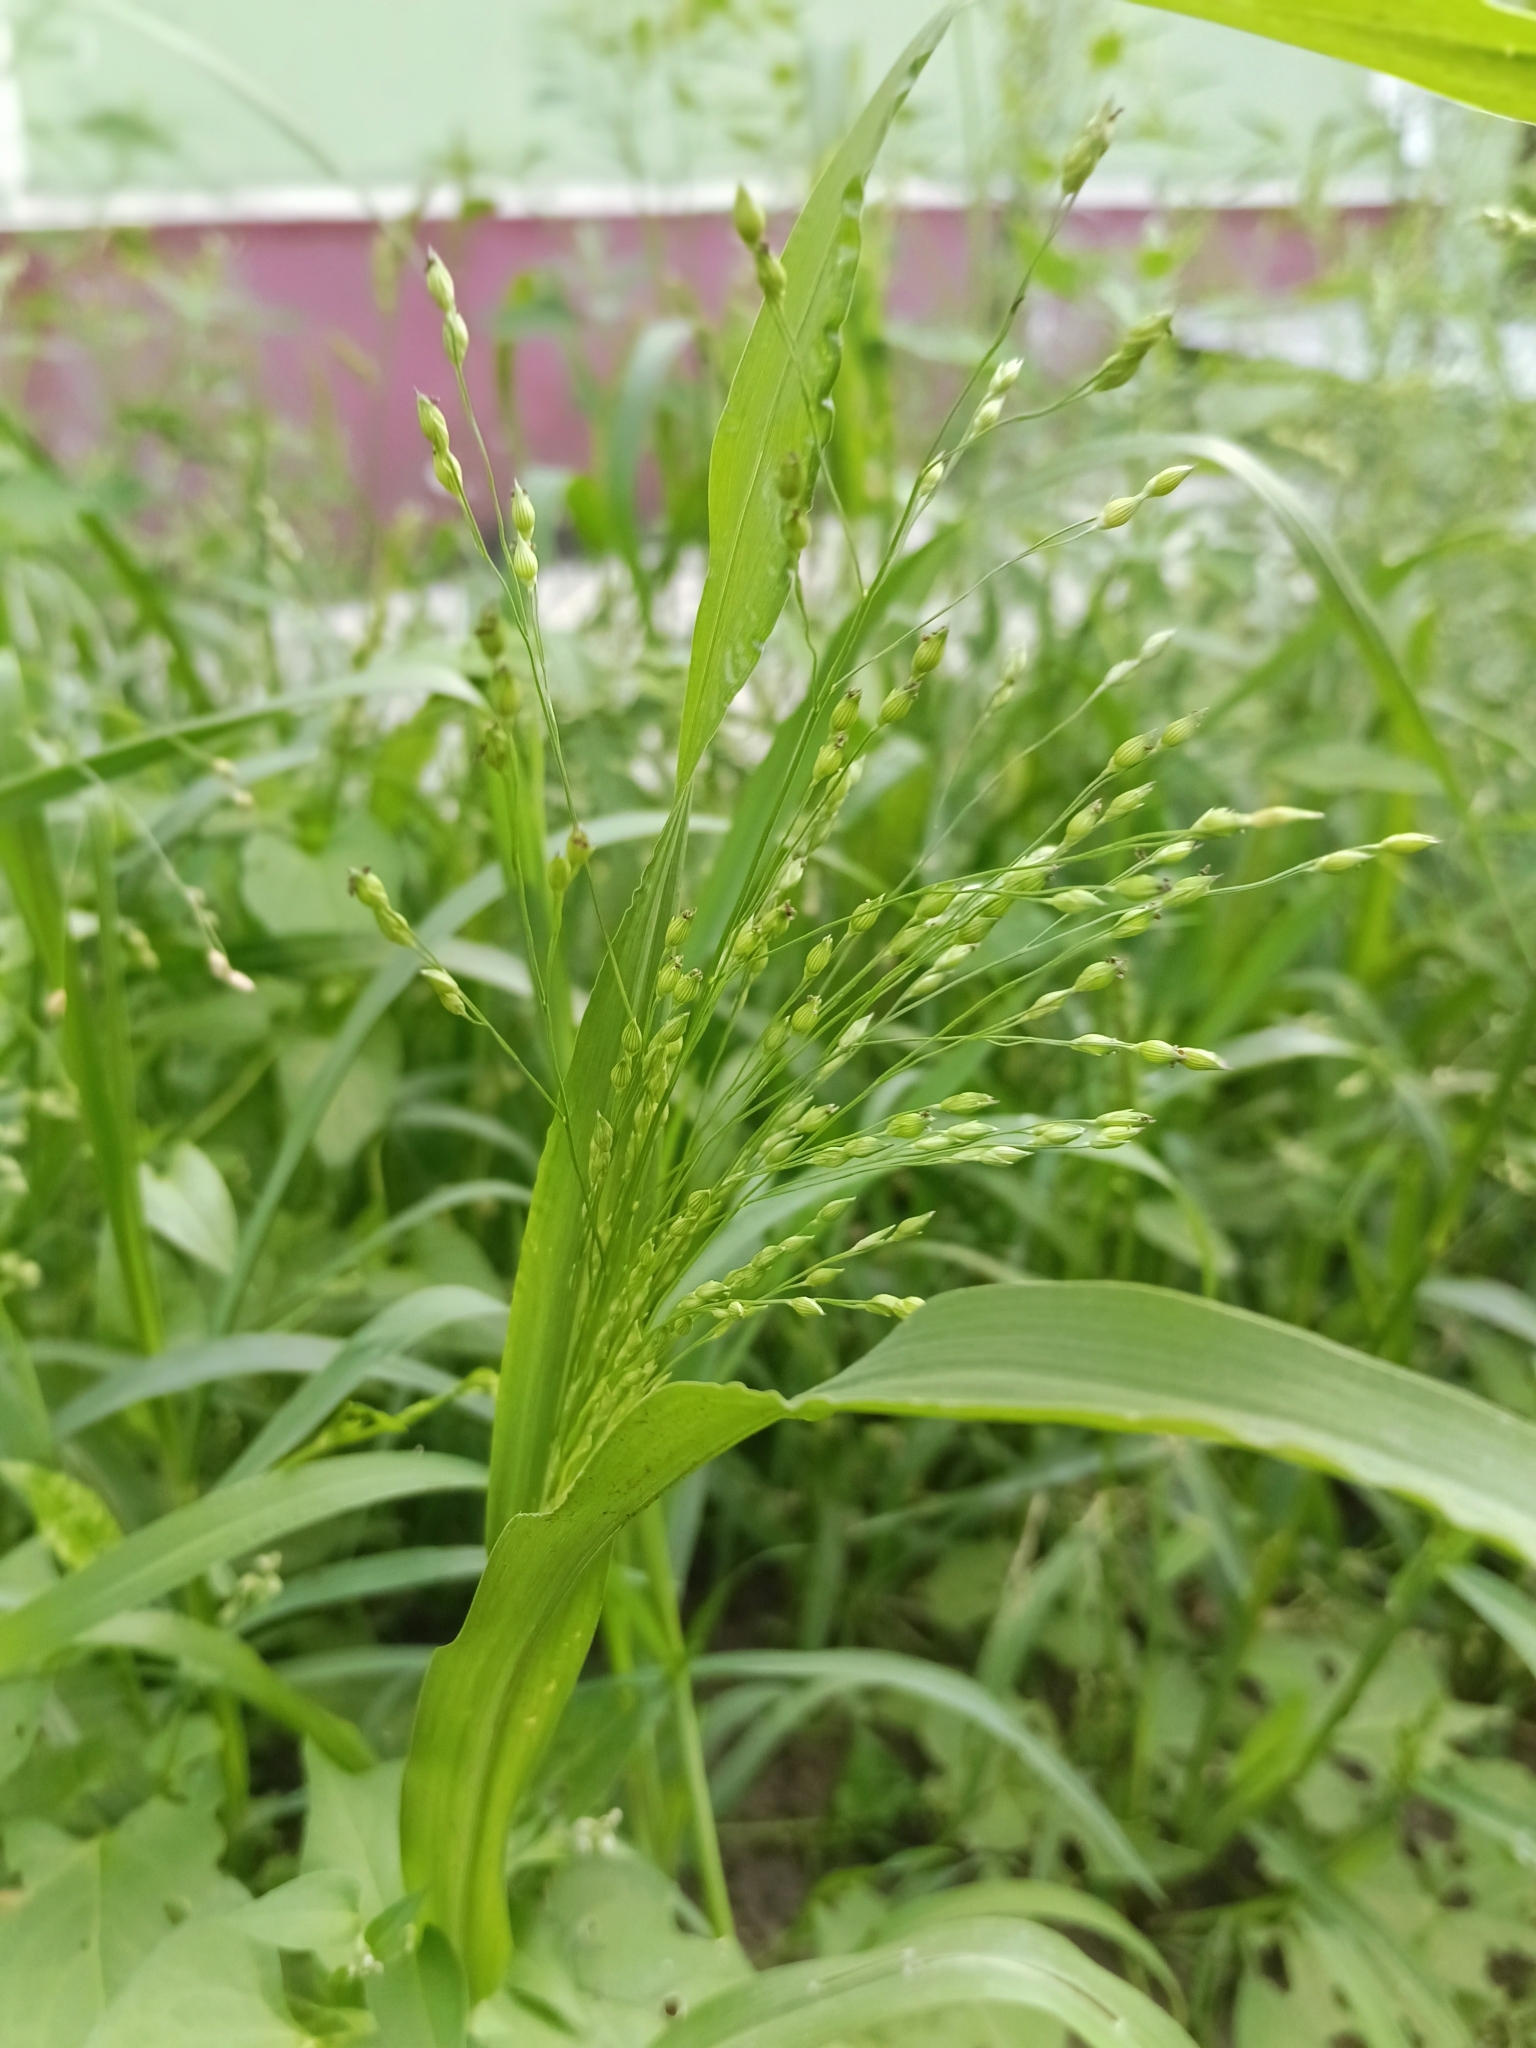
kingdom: Plantae
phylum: Tracheophyta
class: Liliopsida
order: Poales
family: Poaceae
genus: Panicum
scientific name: Panicum miliaceum
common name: Common millet
